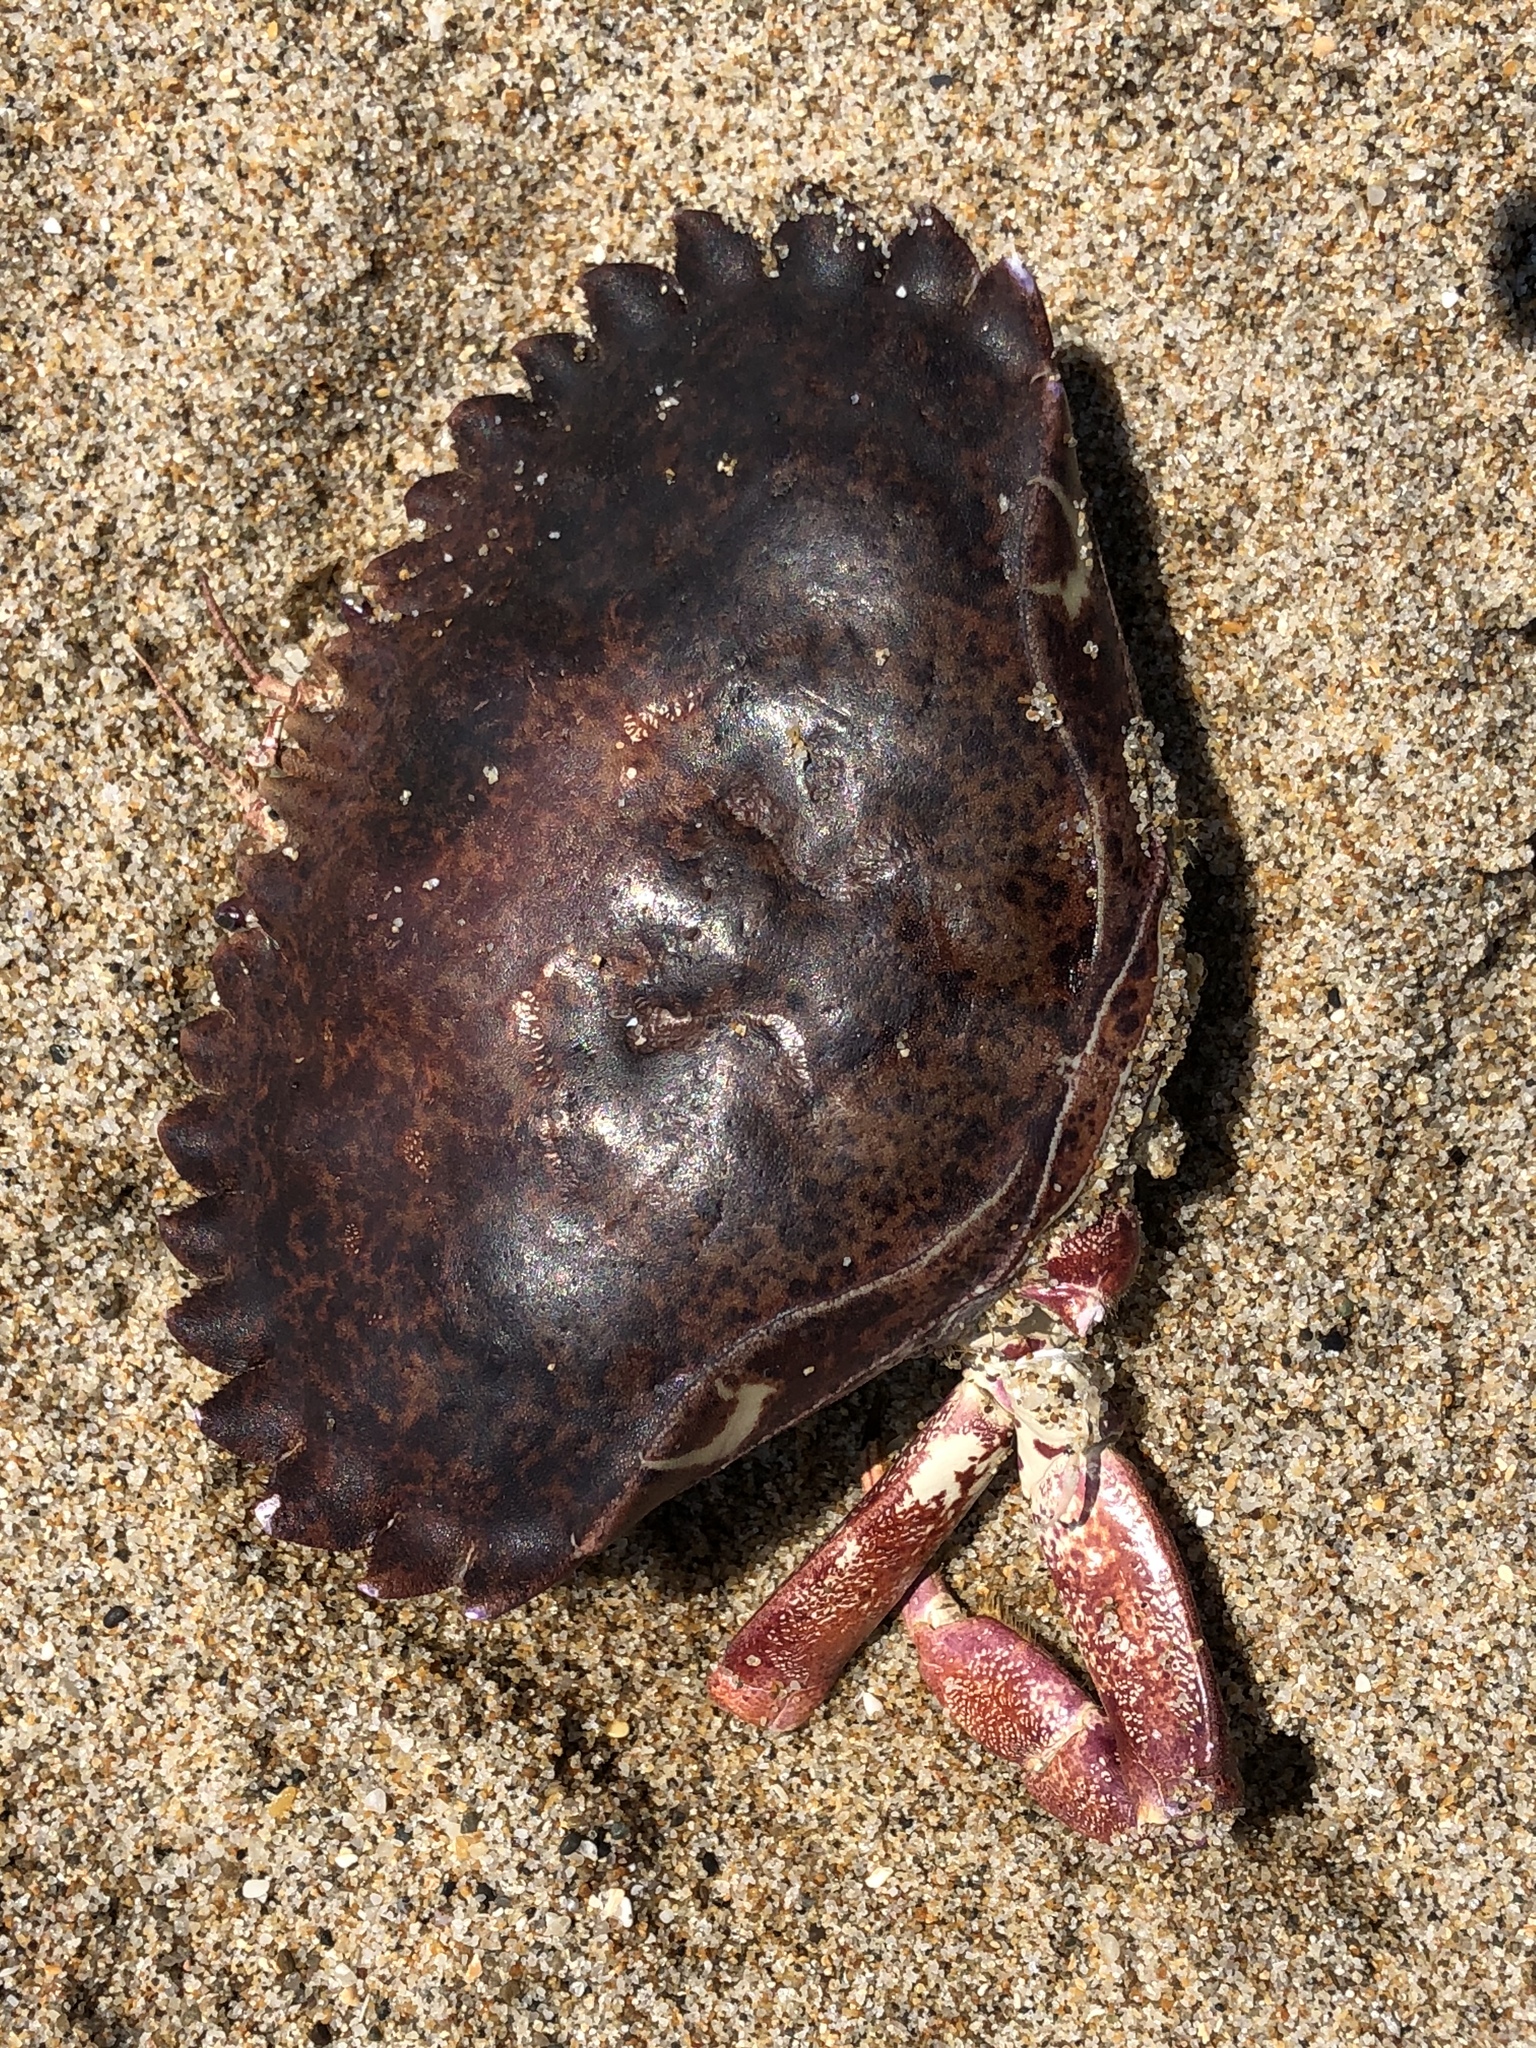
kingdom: Animalia
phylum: Arthropoda
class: Malacostraca
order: Decapoda
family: Cancridae
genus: Romaleon
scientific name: Romaleon antennarium
